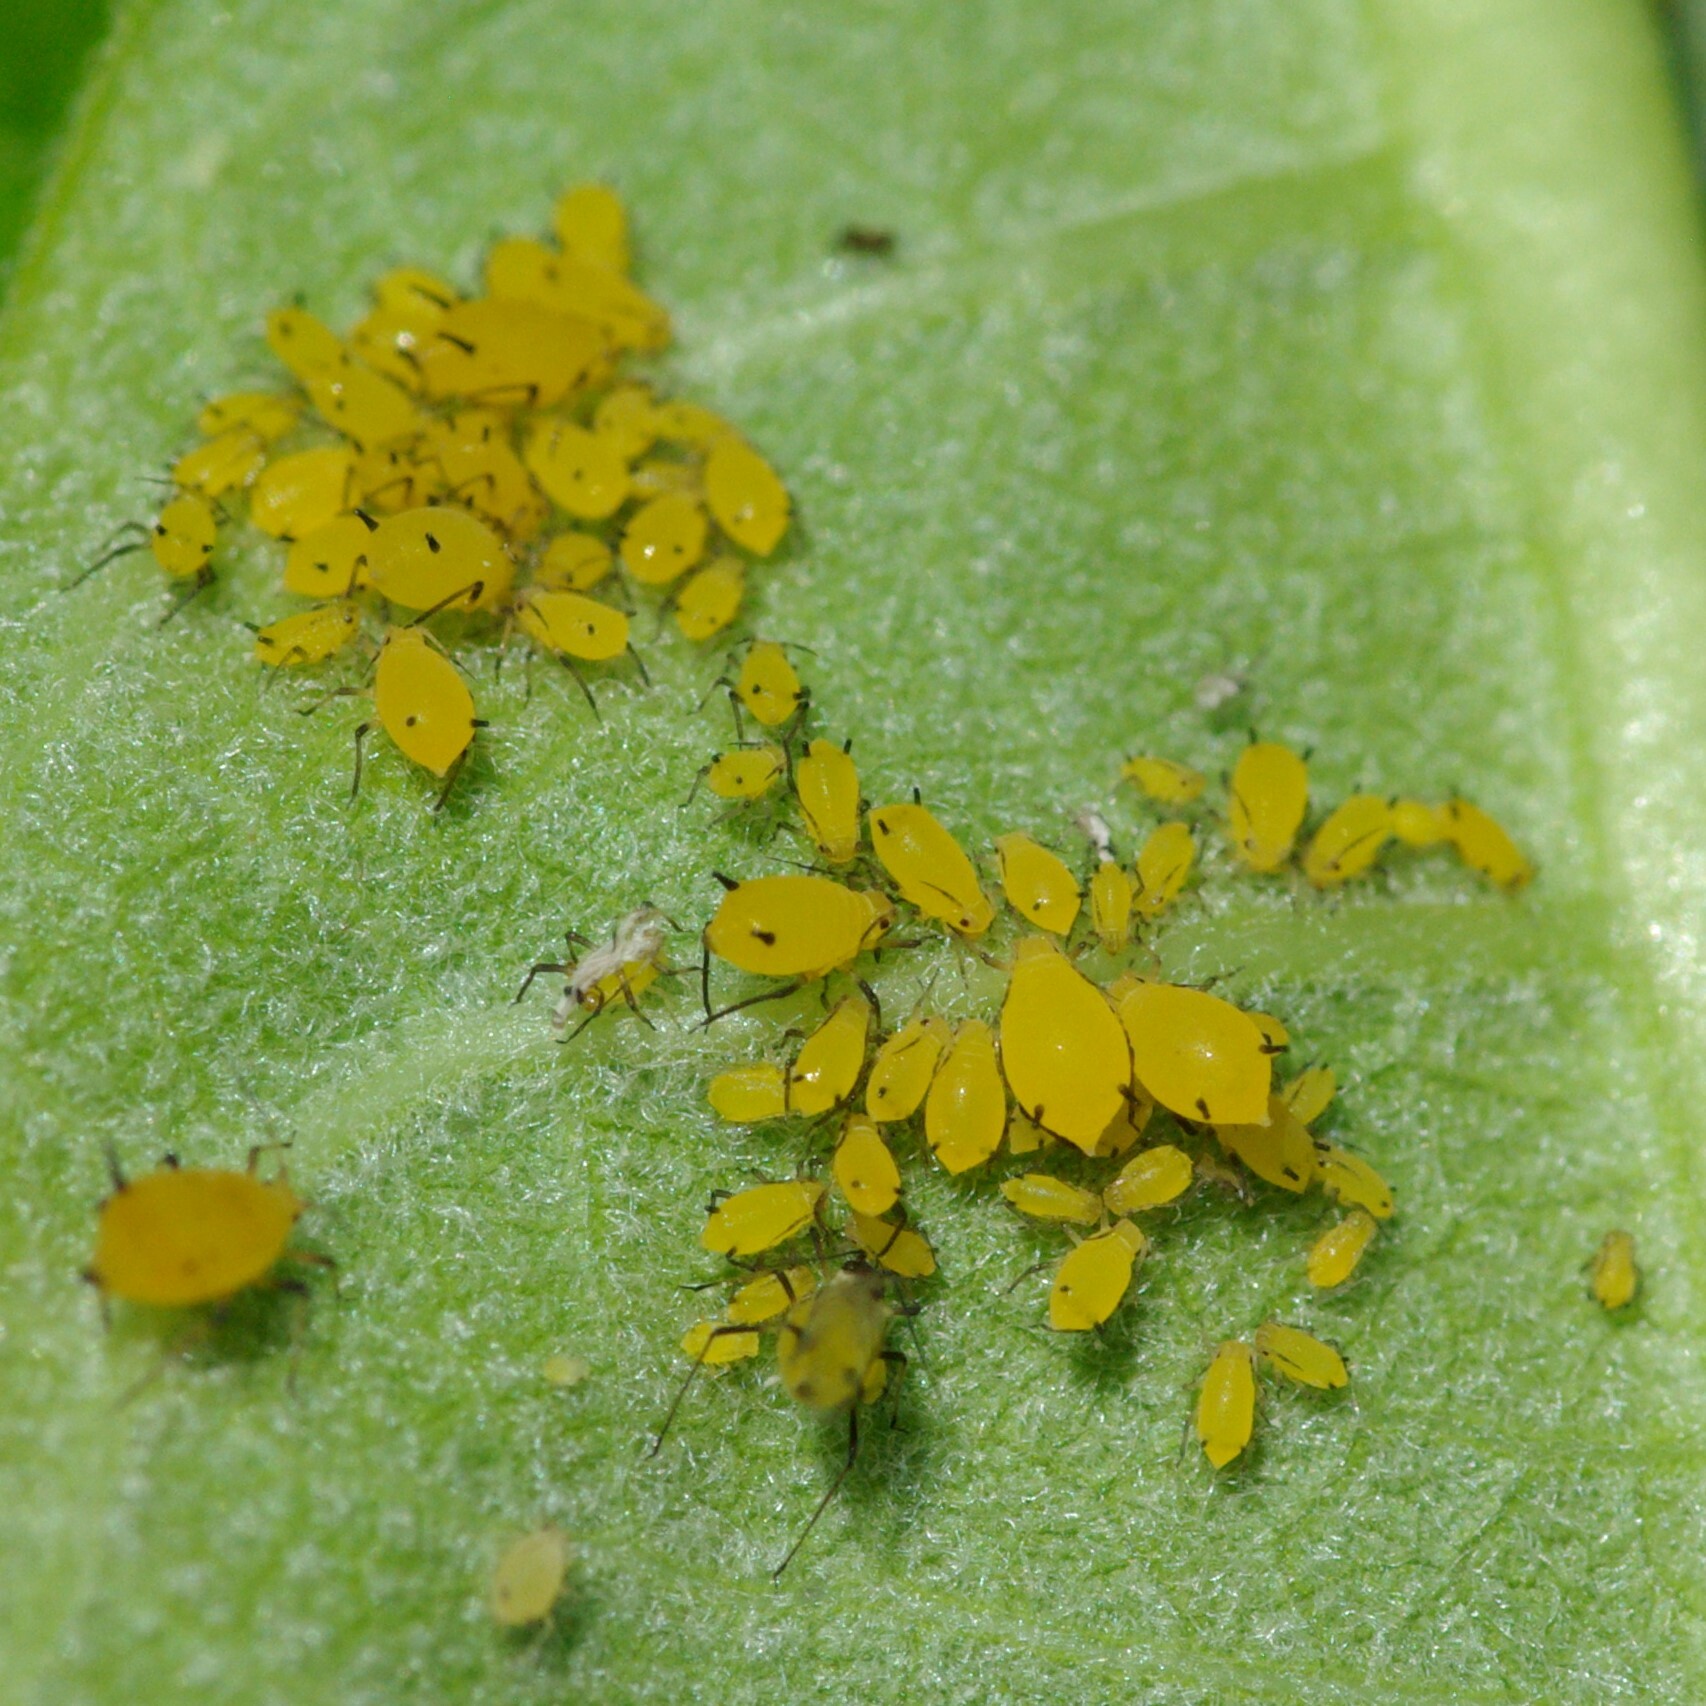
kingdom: Animalia
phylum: Arthropoda
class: Insecta
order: Hemiptera
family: Aphididae
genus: Aphis
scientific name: Aphis nerii
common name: Oleander aphid
